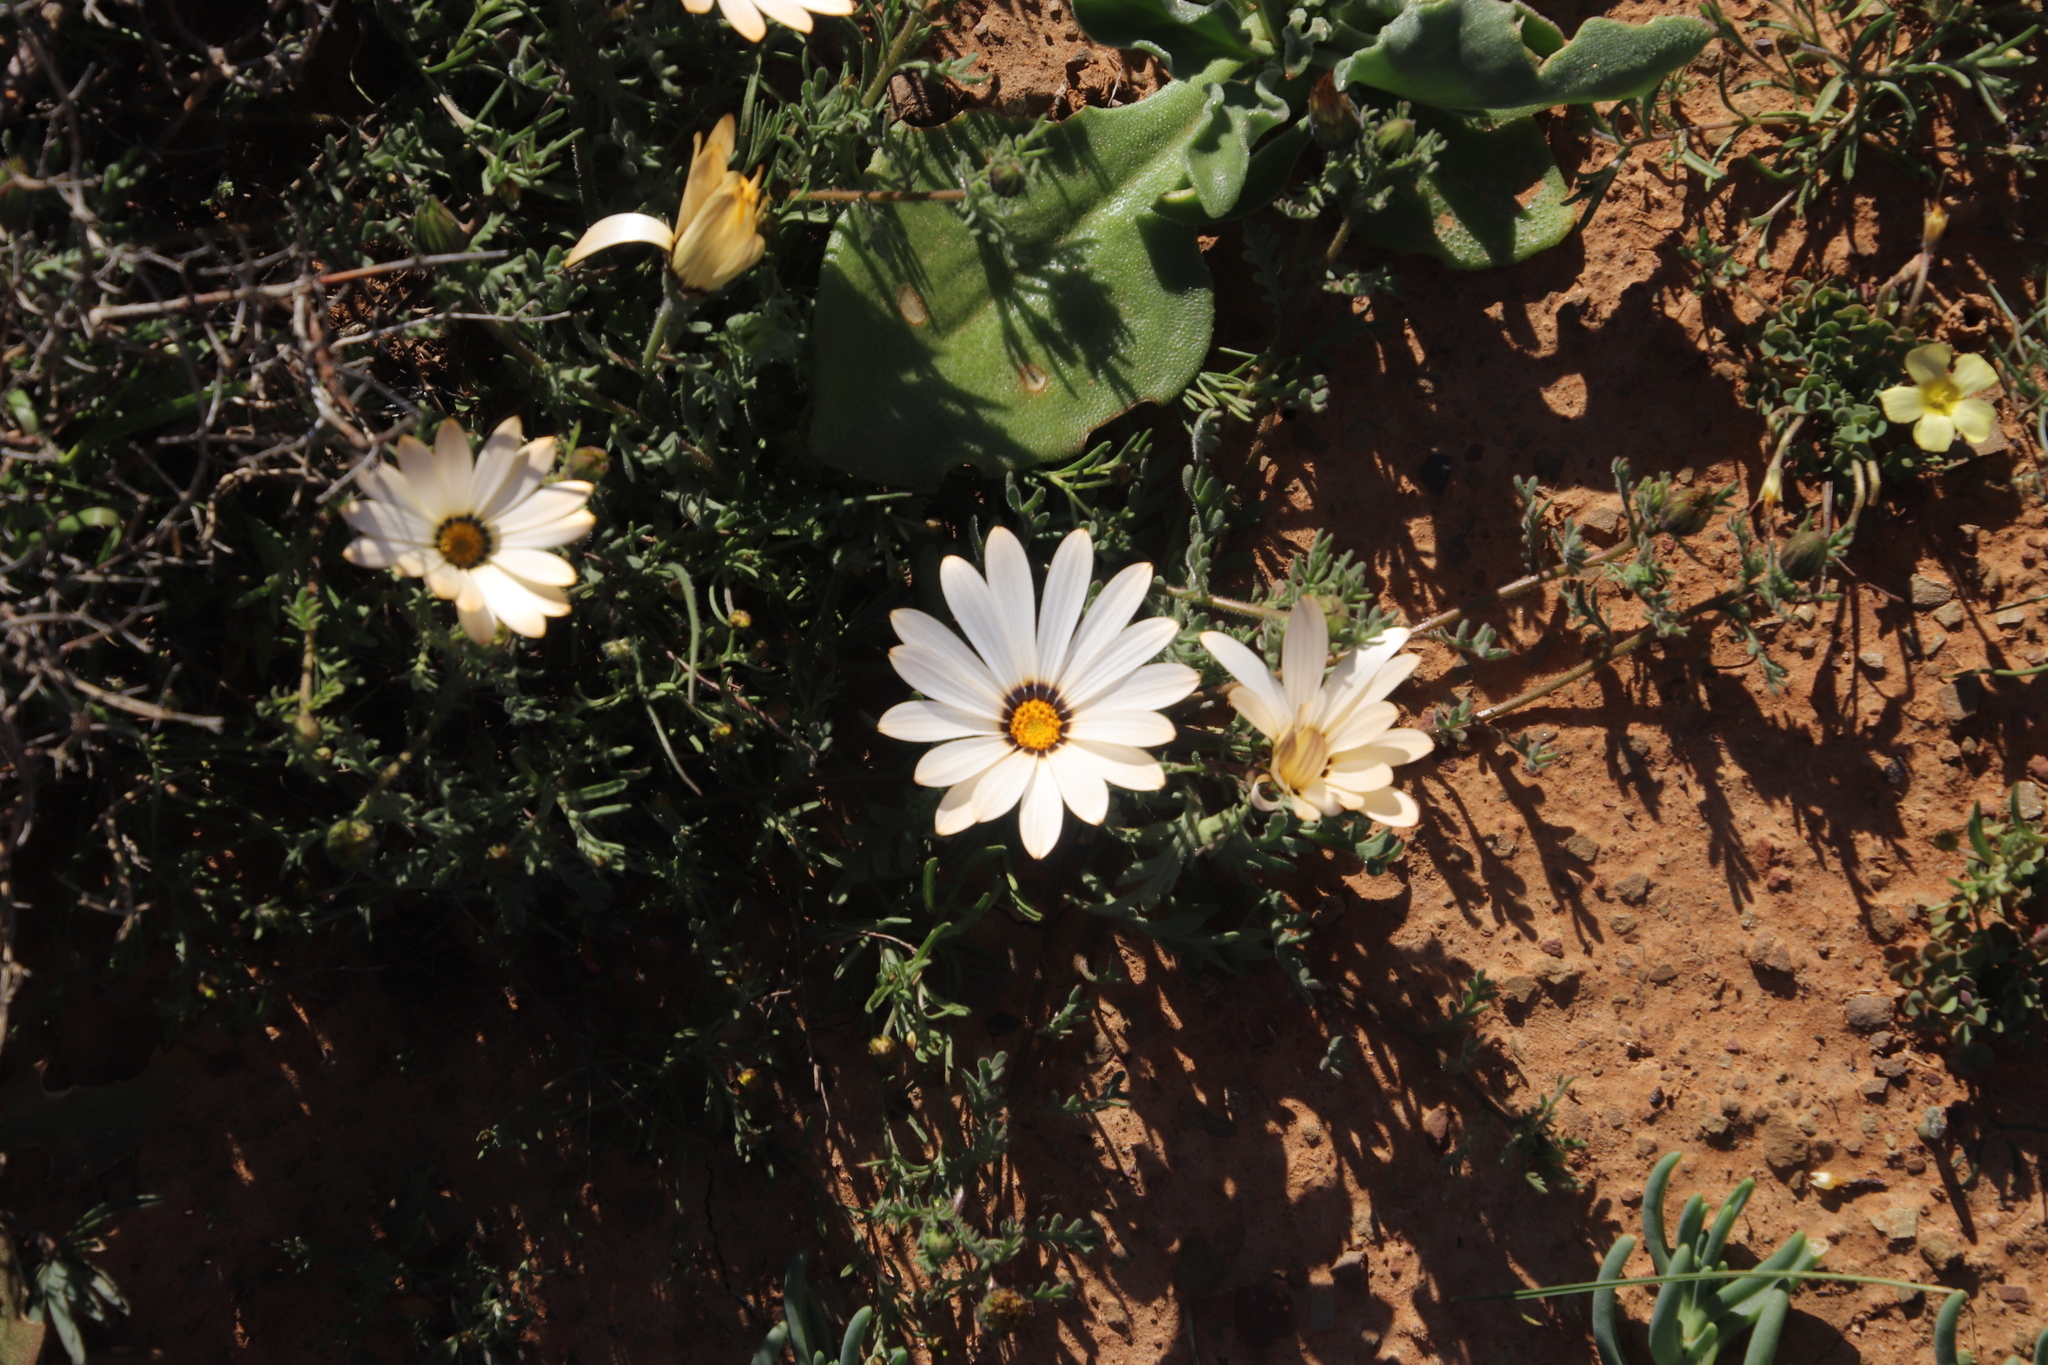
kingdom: Plantae
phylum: Tracheophyta
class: Magnoliopsida
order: Asterales
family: Asteraceae
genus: Dimorphotheca
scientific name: Dimorphotheca pinnata
